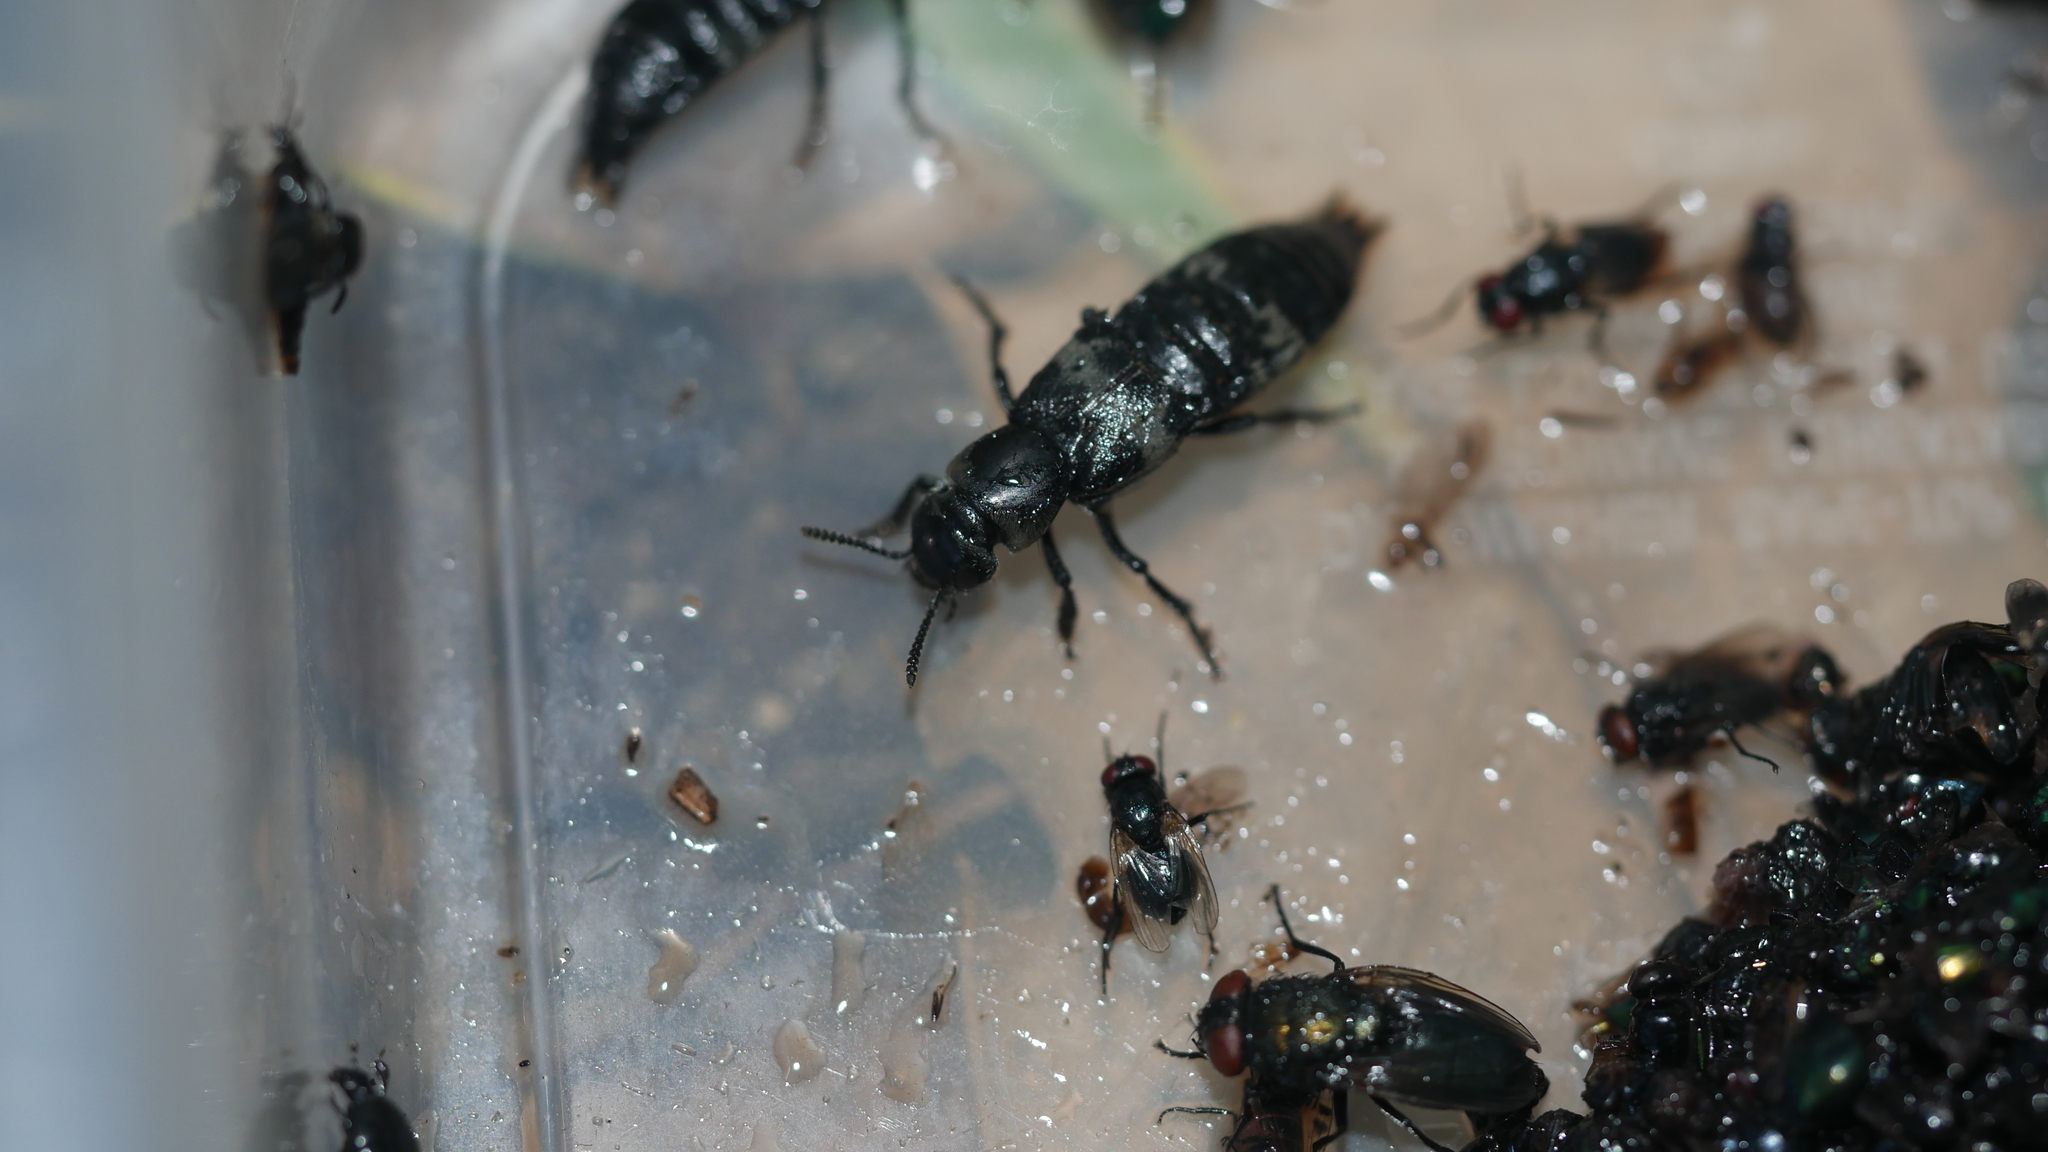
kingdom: Animalia
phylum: Arthropoda
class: Insecta
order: Coleoptera
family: Staphylinidae
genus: Creophilus
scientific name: Creophilus maxillosus
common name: Hairy rove beetle
